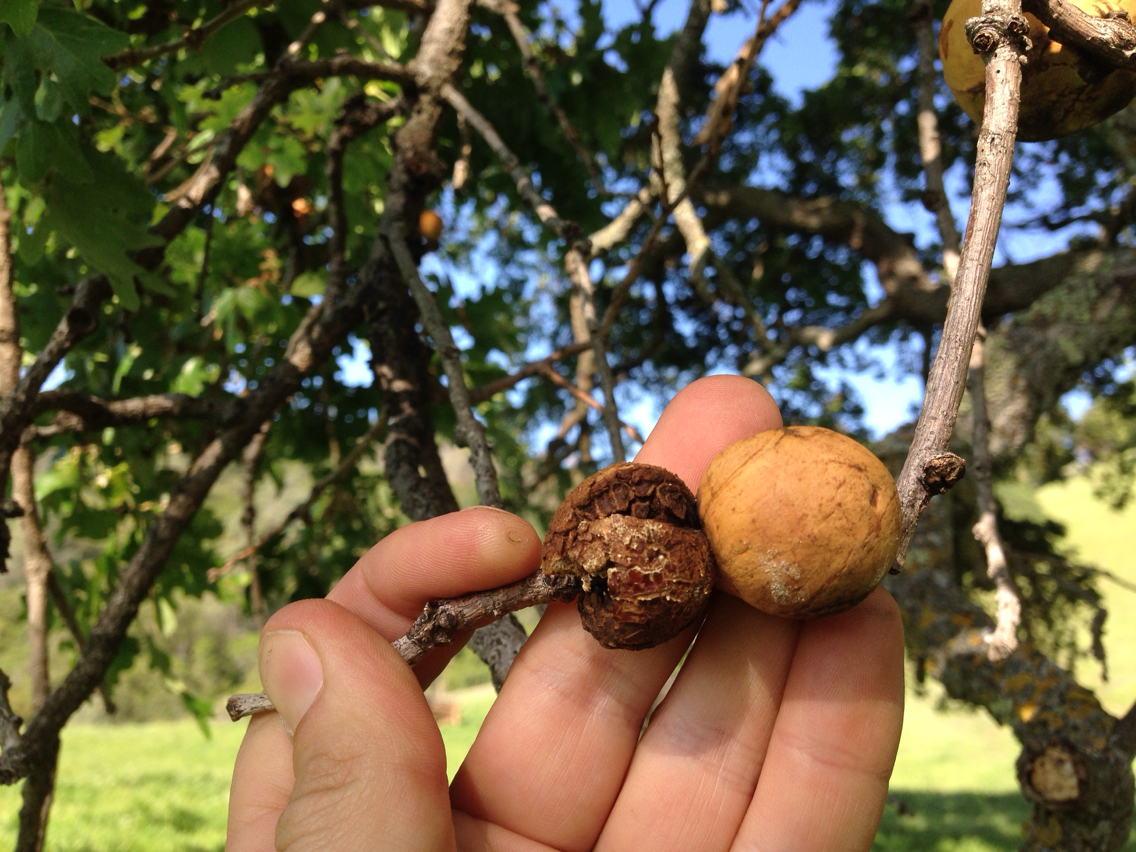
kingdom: Animalia
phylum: Arthropoda
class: Insecta
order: Hymenoptera
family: Cynipidae
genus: Andricus
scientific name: Andricus quercuscalifornicus
